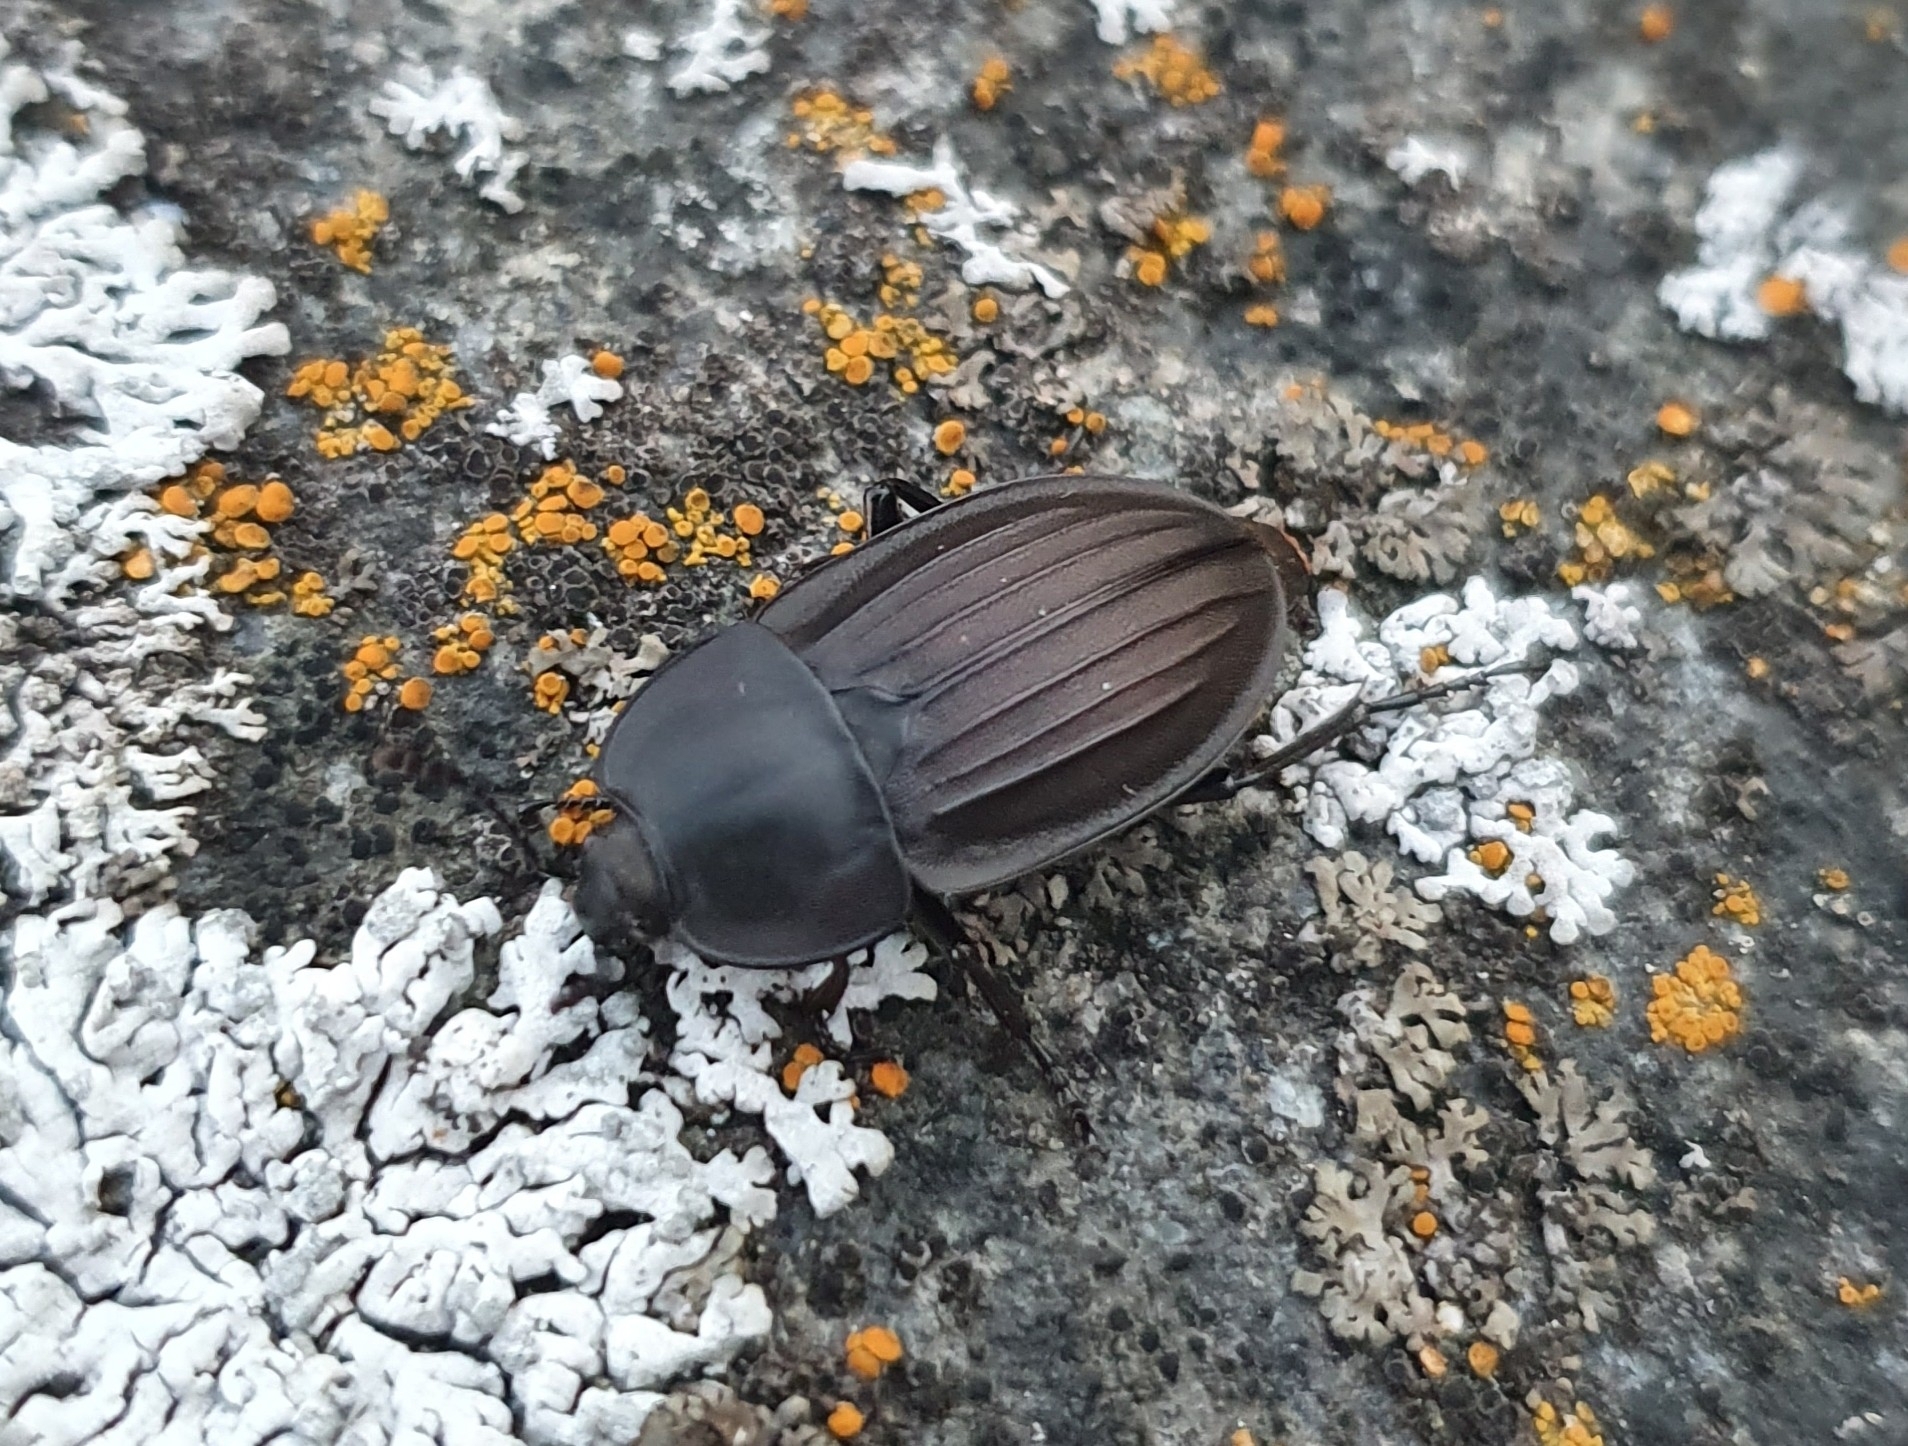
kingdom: Animalia
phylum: Arthropoda
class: Insecta
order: Coleoptera
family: Staphylinidae
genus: Silpha
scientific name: Silpha carinata
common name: Silphid beetle
